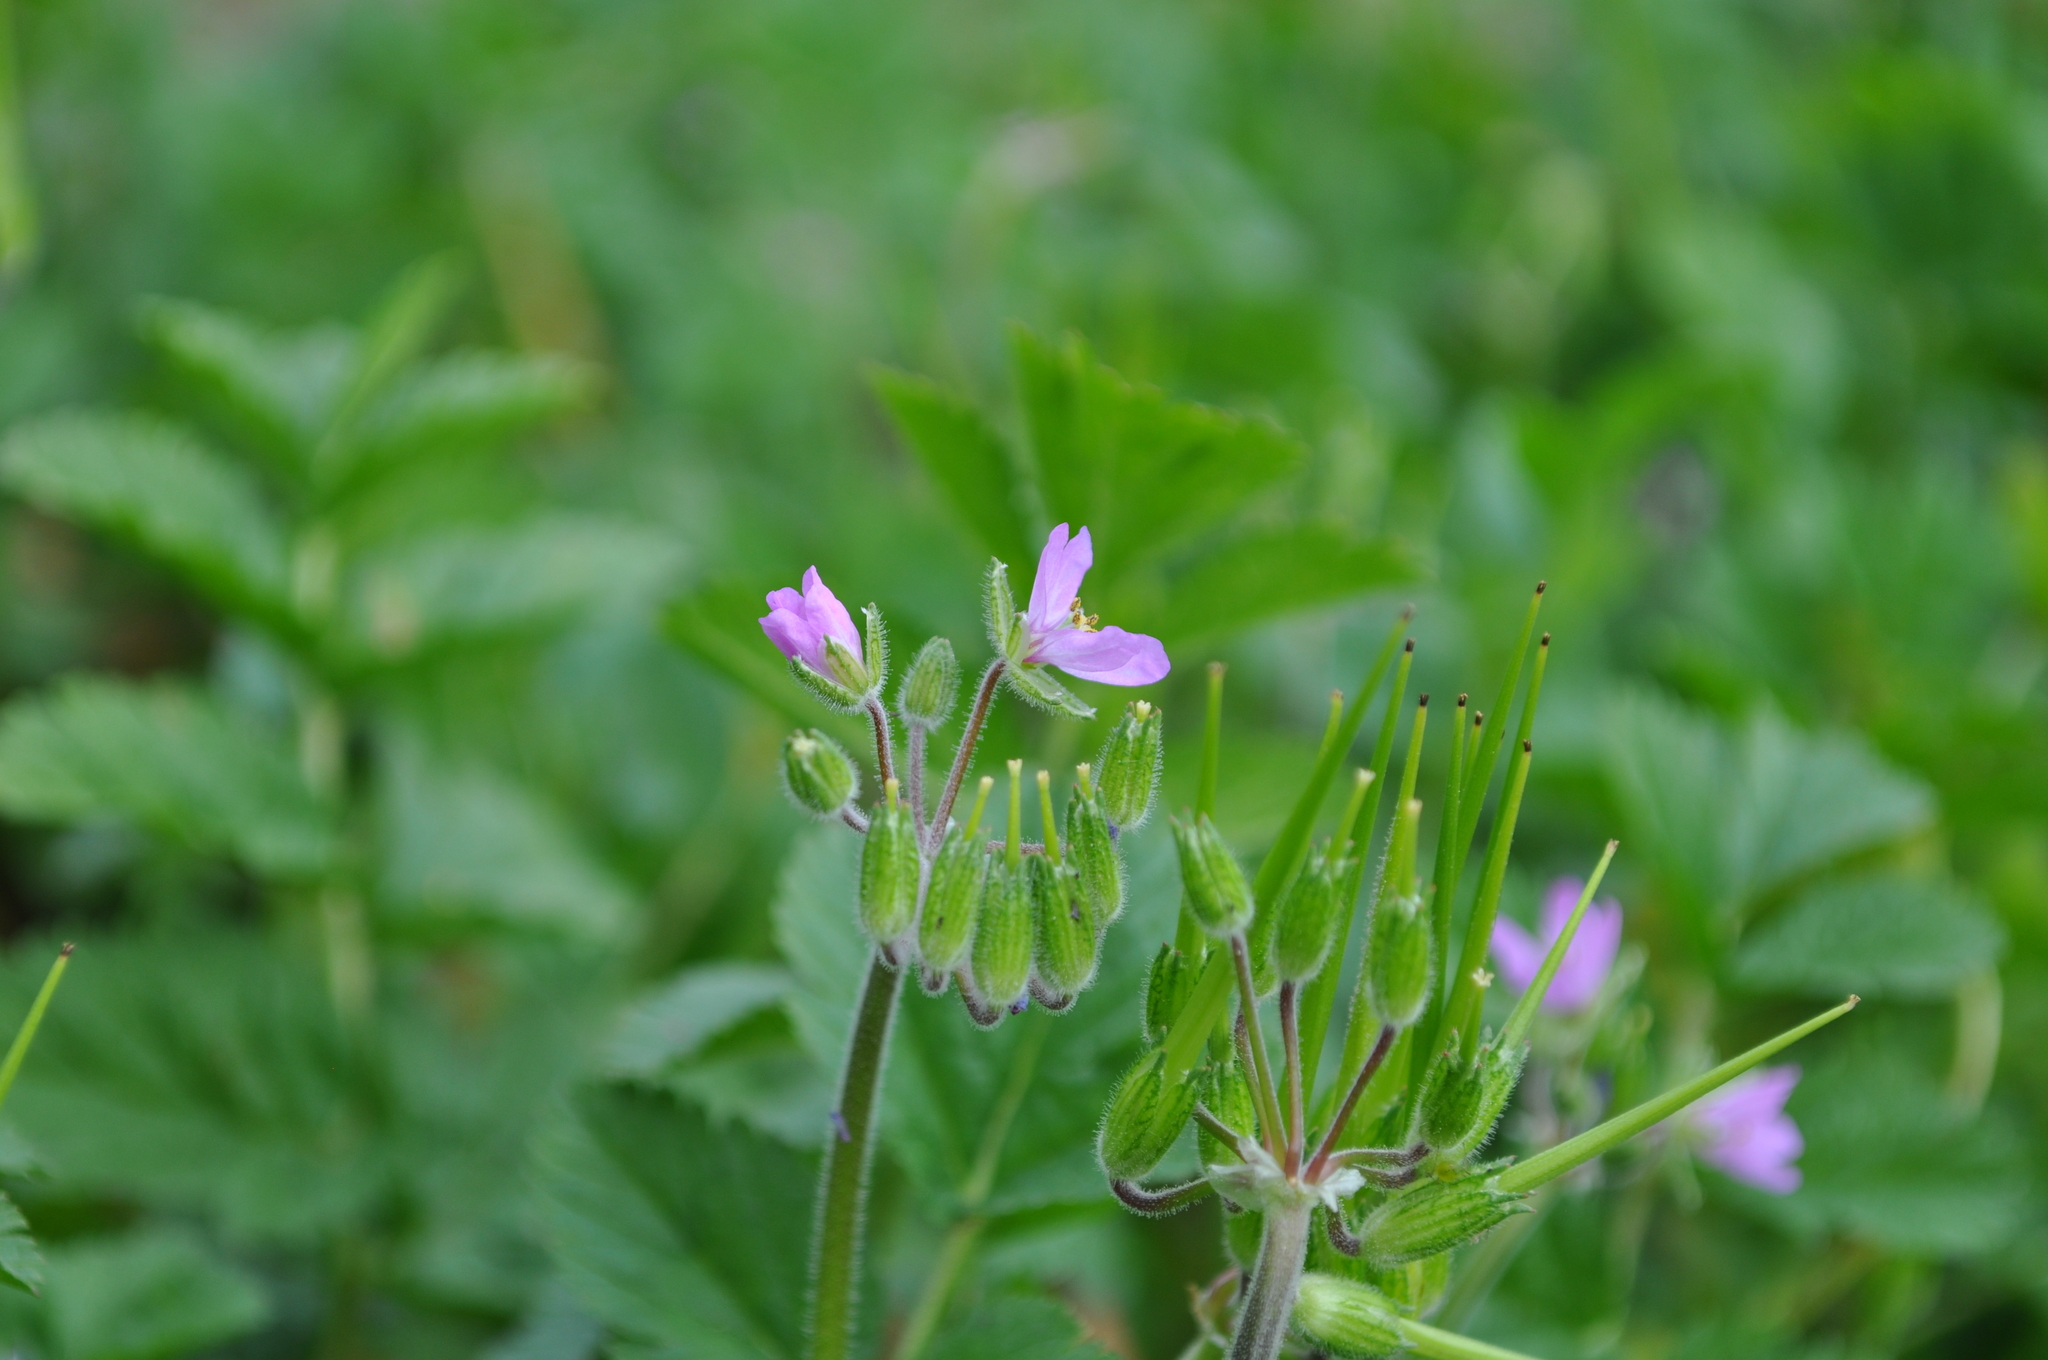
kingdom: Plantae
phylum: Tracheophyta
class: Magnoliopsida
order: Geraniales
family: Geraniaceae
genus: Erodium
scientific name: Erodium moschatum
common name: Musk stork's-bill
